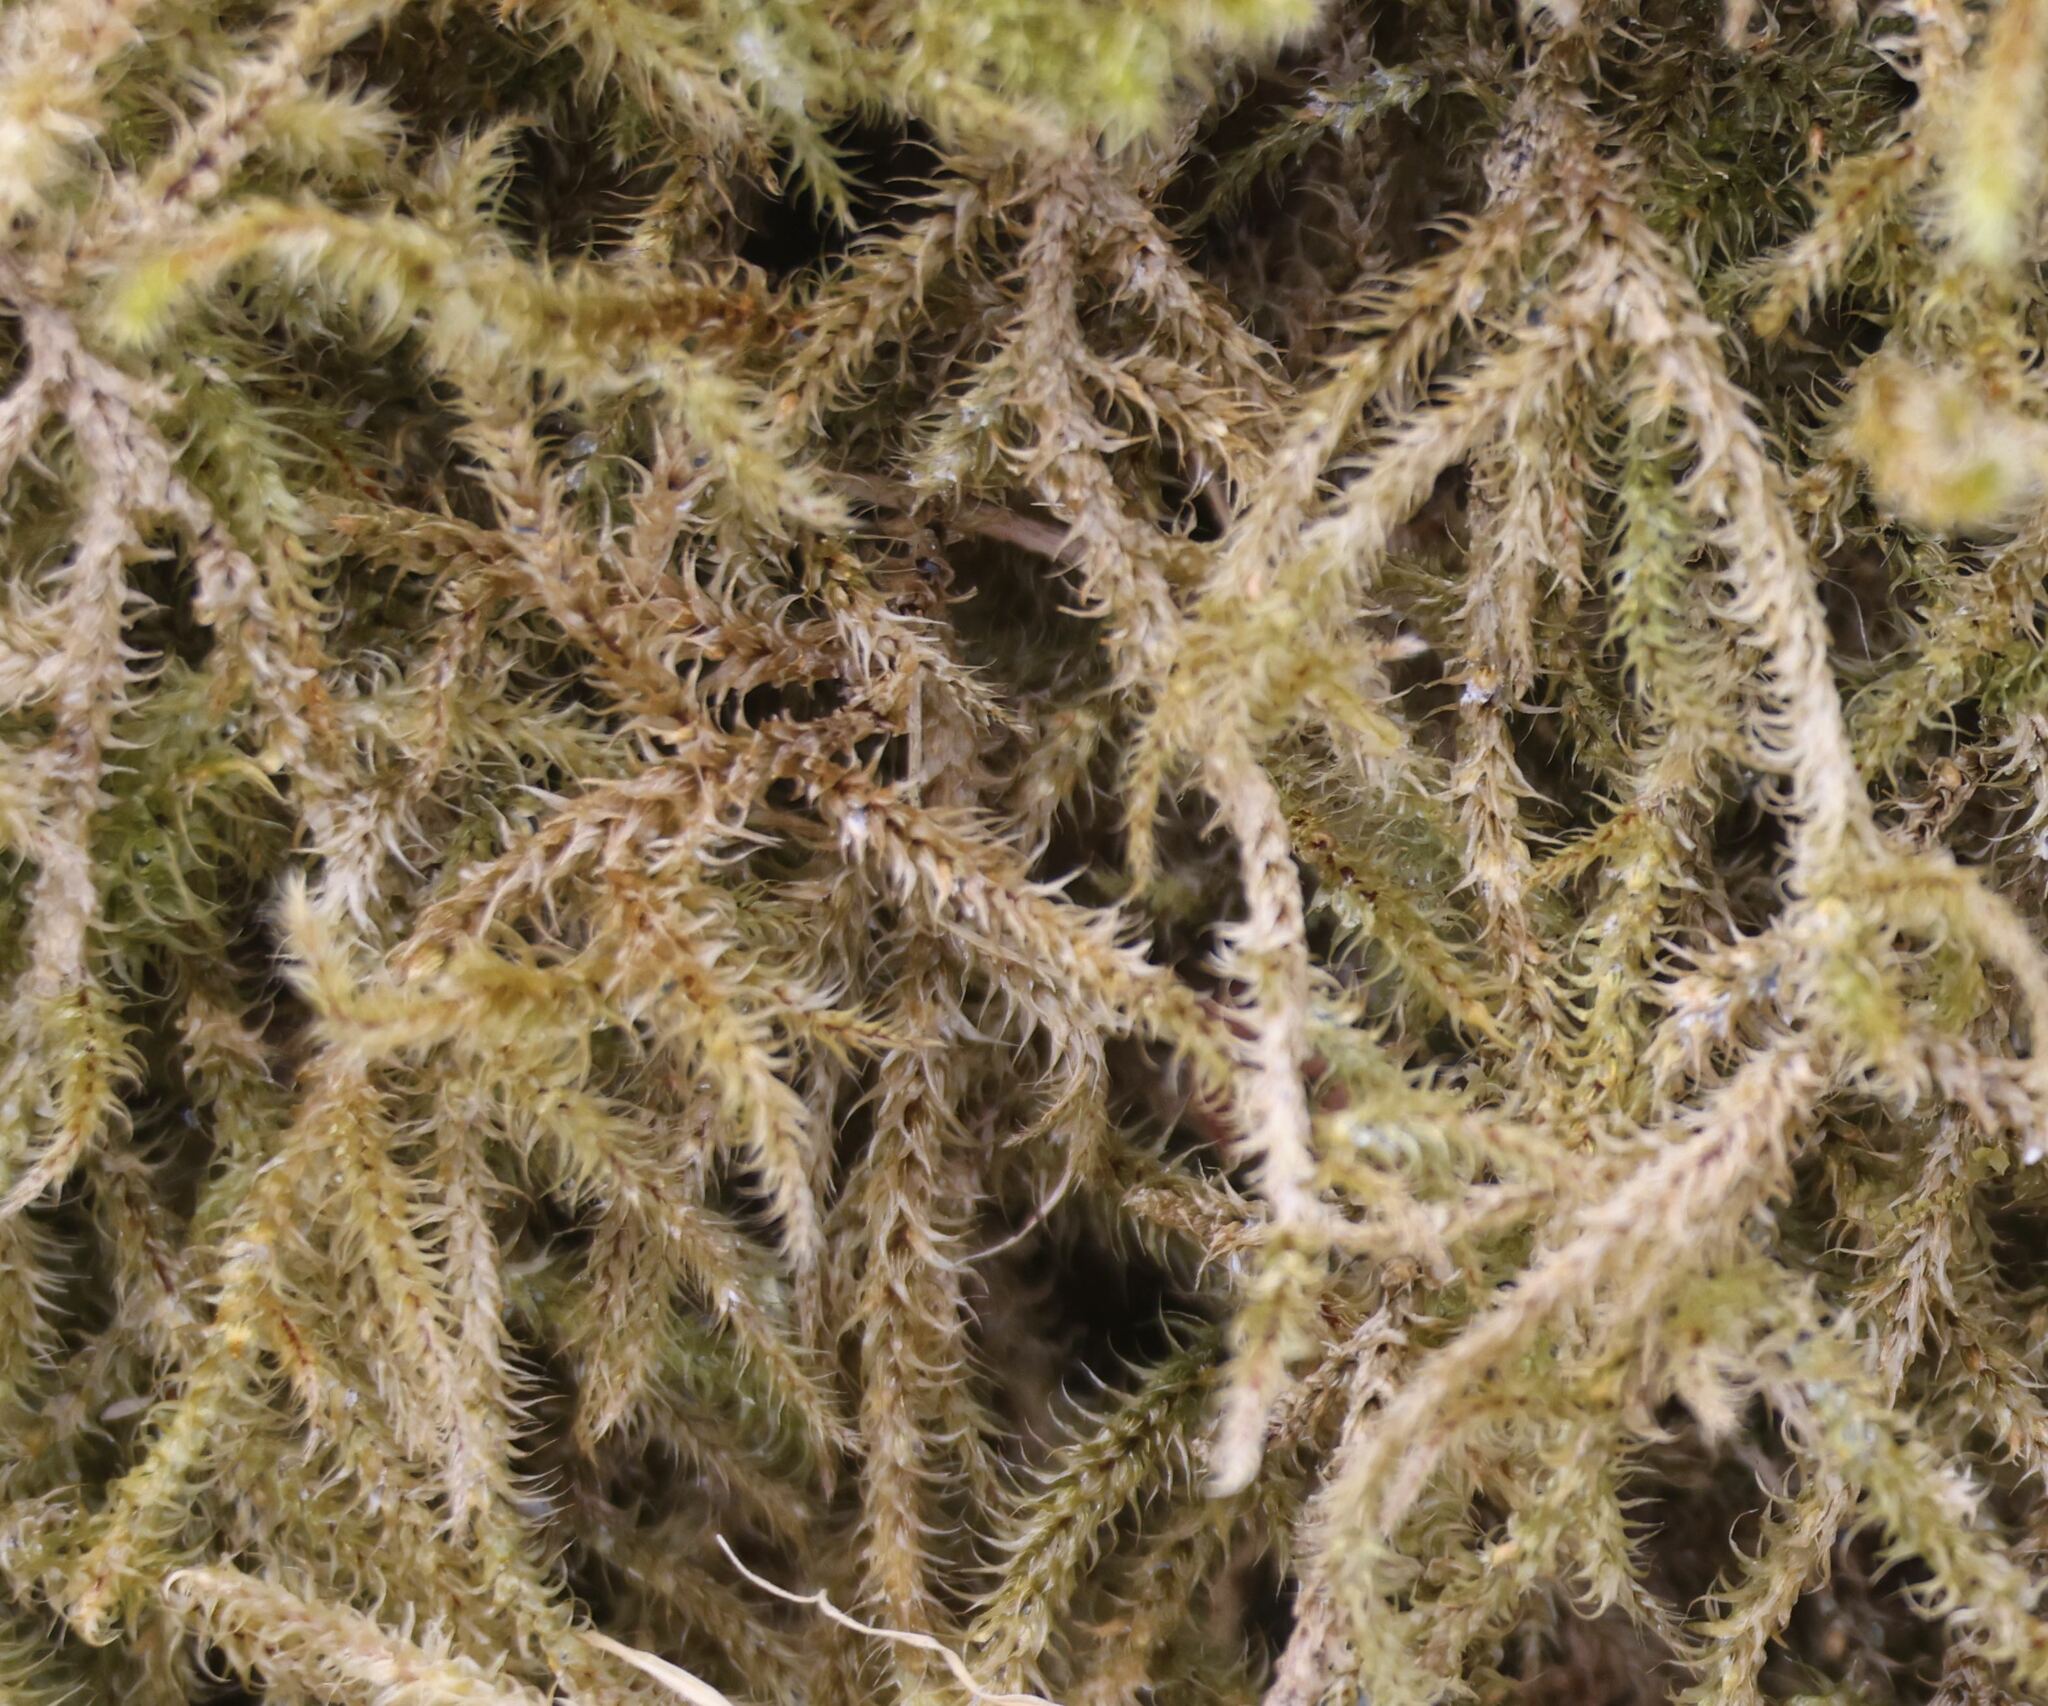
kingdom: Plantae
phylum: Bryophyta
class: Bryopsida
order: Hypnales
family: Hylocomiaceae
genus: Rhytidiadelphus
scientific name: Rhytidiadelphus loreus
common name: Lanky moss
